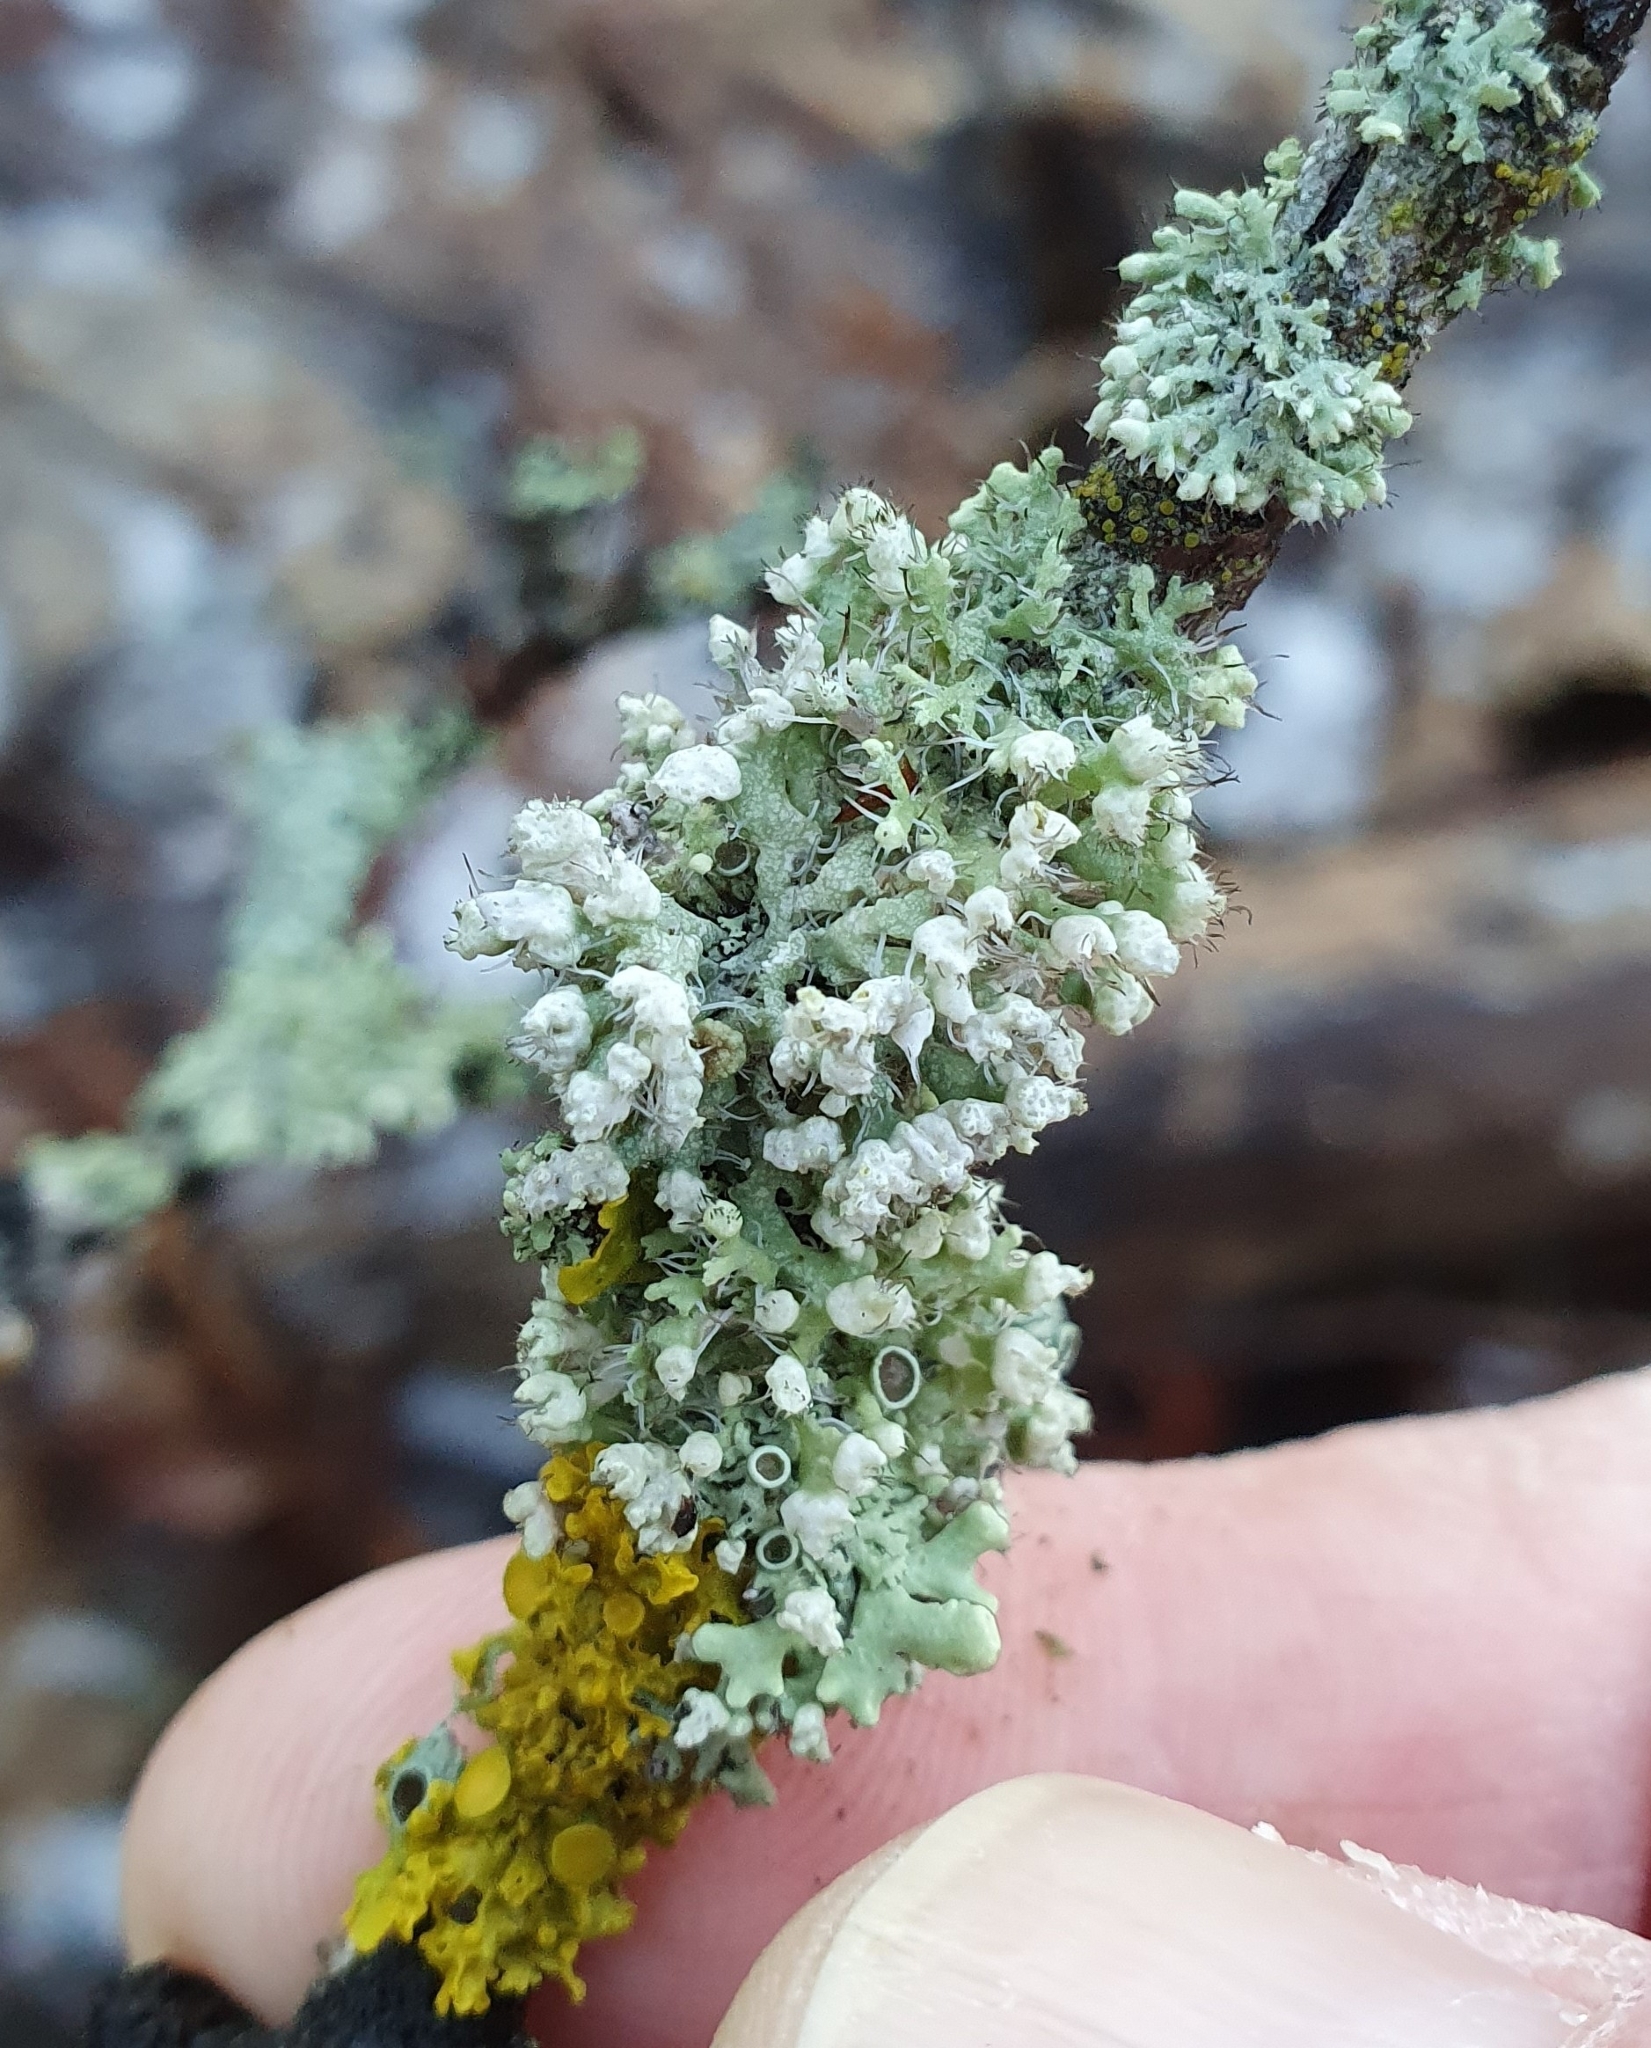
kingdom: Fungi
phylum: Ascomycota
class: Lecanoromycetes
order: Caliciales
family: Physciaceae
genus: Physcia
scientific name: Physcia adscendens
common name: Hooded rosette lichen
